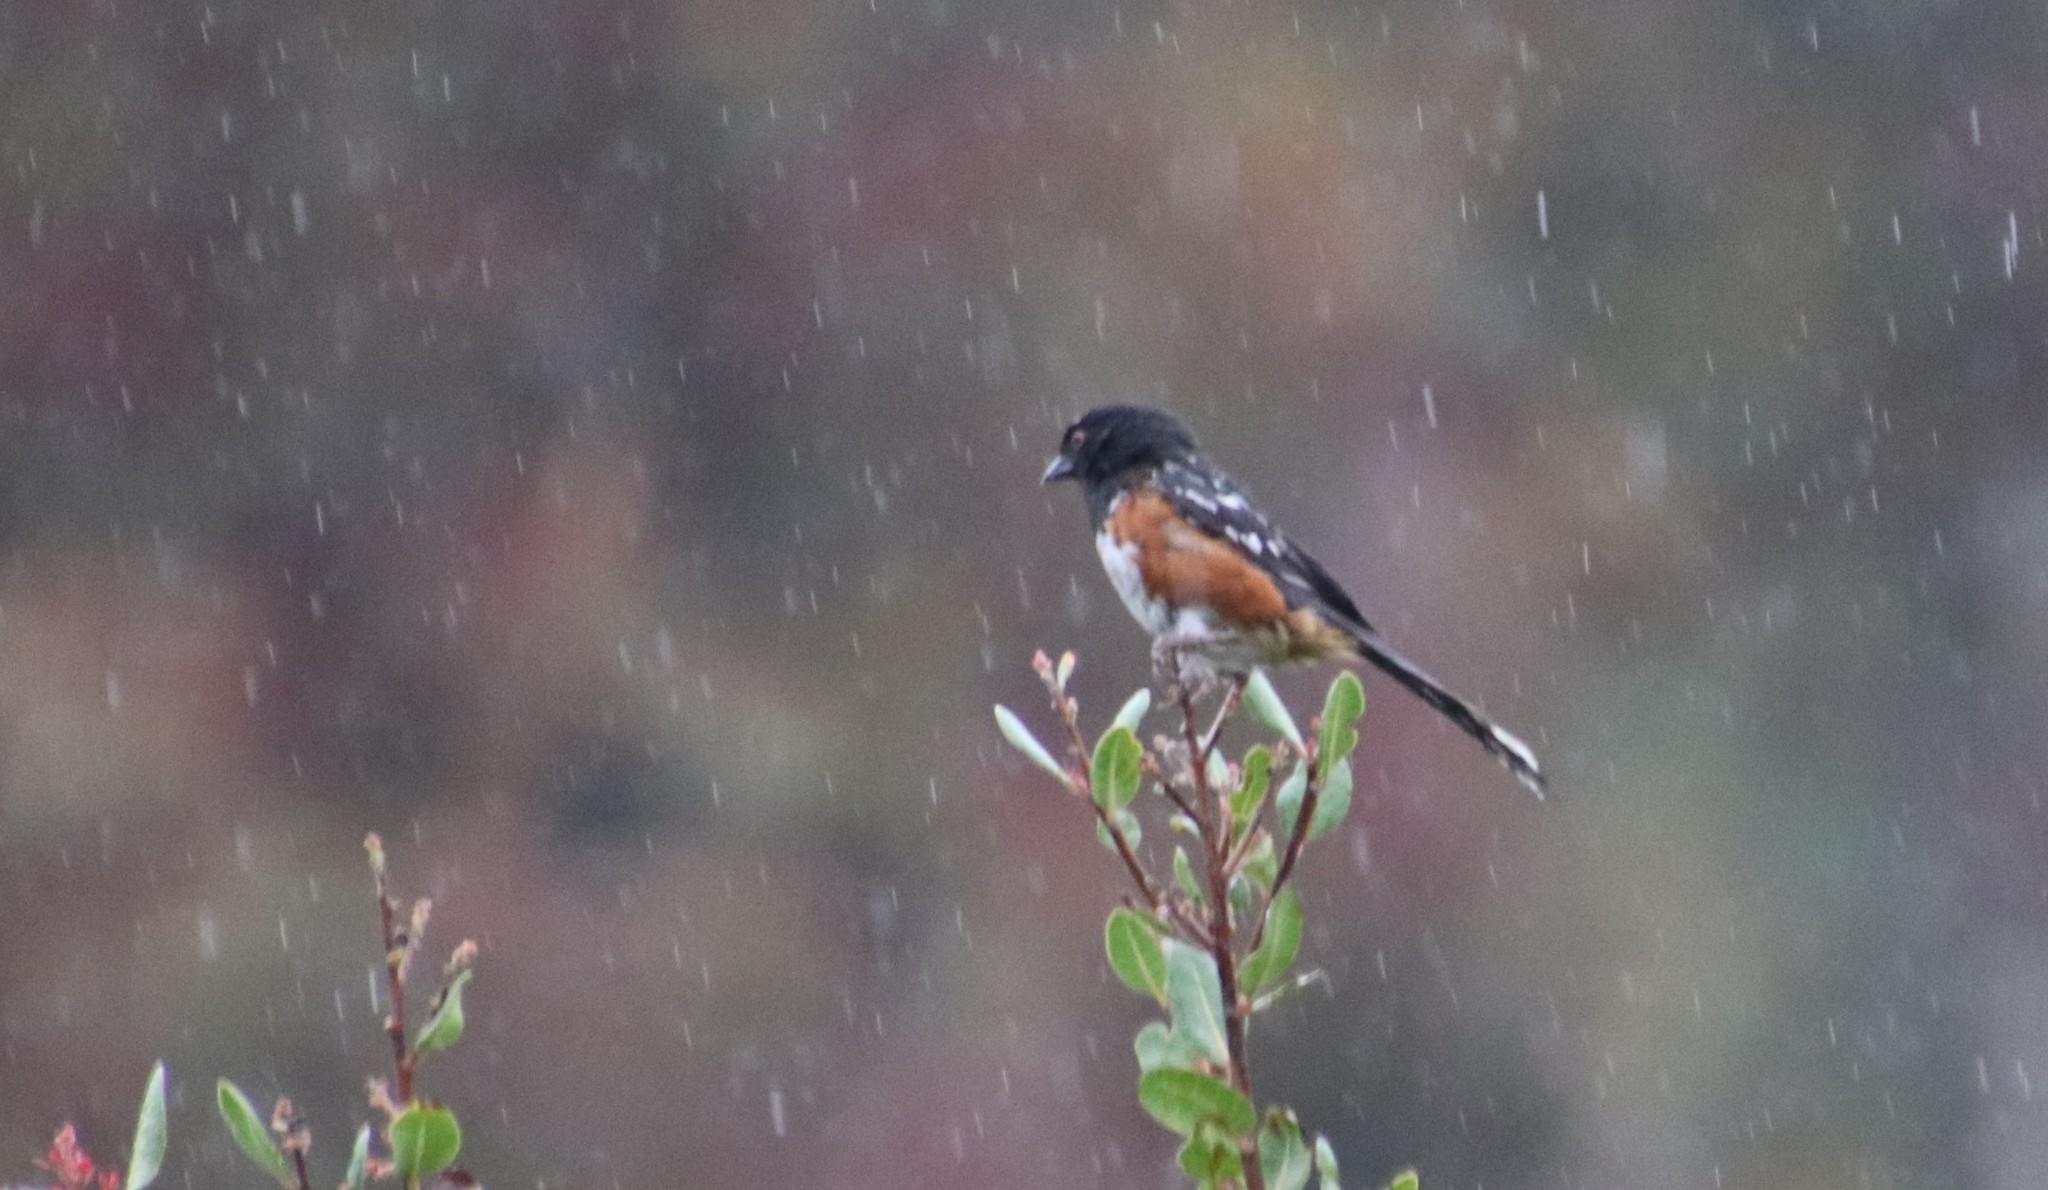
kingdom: Animalia
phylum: Chordata
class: Aves
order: Passeriformes
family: Passerellidae
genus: Pipilo
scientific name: Pipilo maculatus
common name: Spotted towhee
